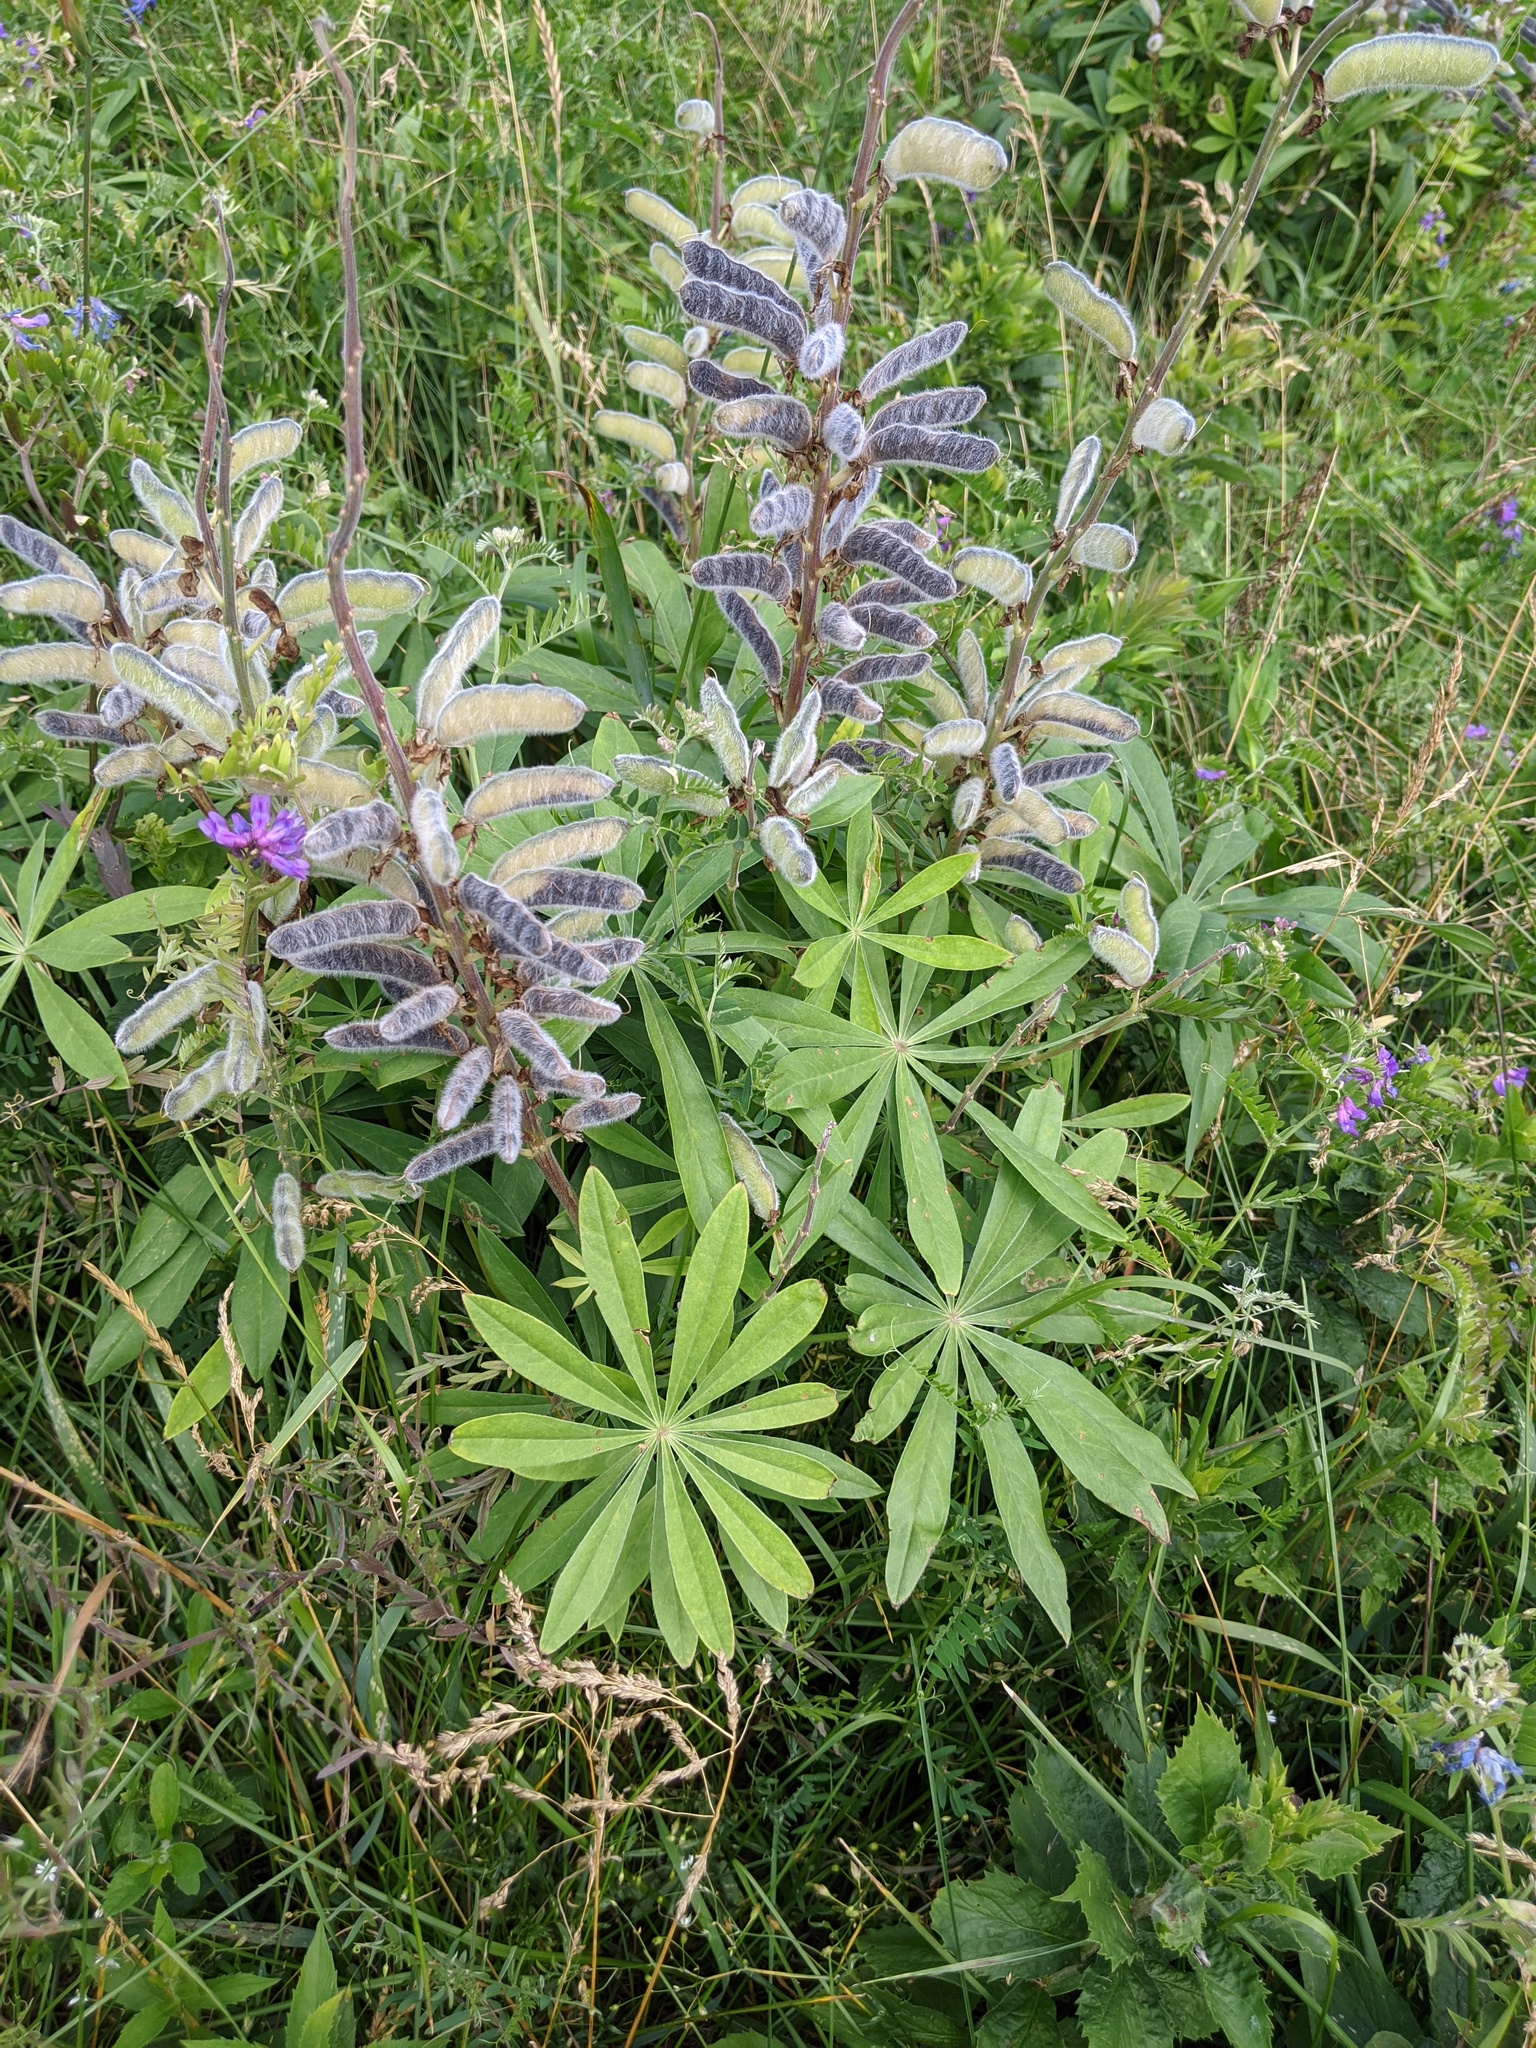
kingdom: Plantae
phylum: Tracheophyta
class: Magnoliopsida
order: Fabales
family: Fabaceae
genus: Lupinus
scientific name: Lupinus polyphyllus
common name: Garden lupin
